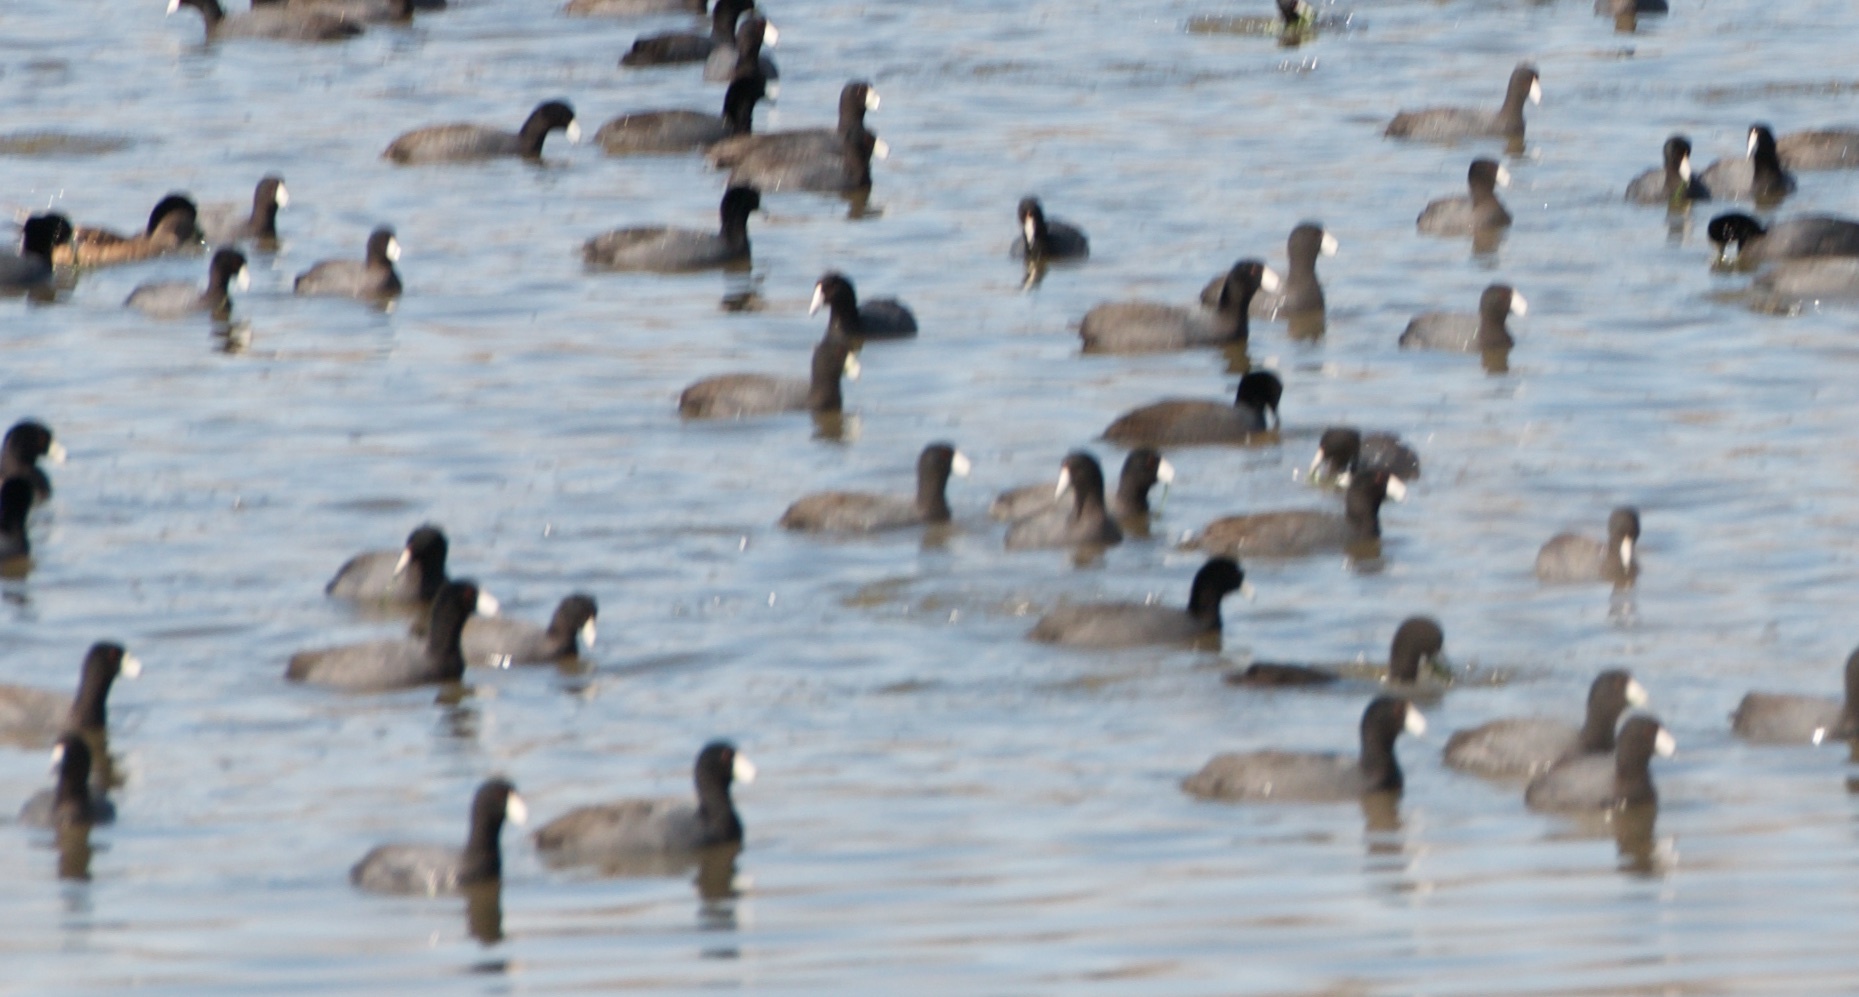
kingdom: Animalia
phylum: Chordata
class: Aves
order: Gruiformes
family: Rallidae
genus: Fulica
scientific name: Fulica americana
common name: American coot
